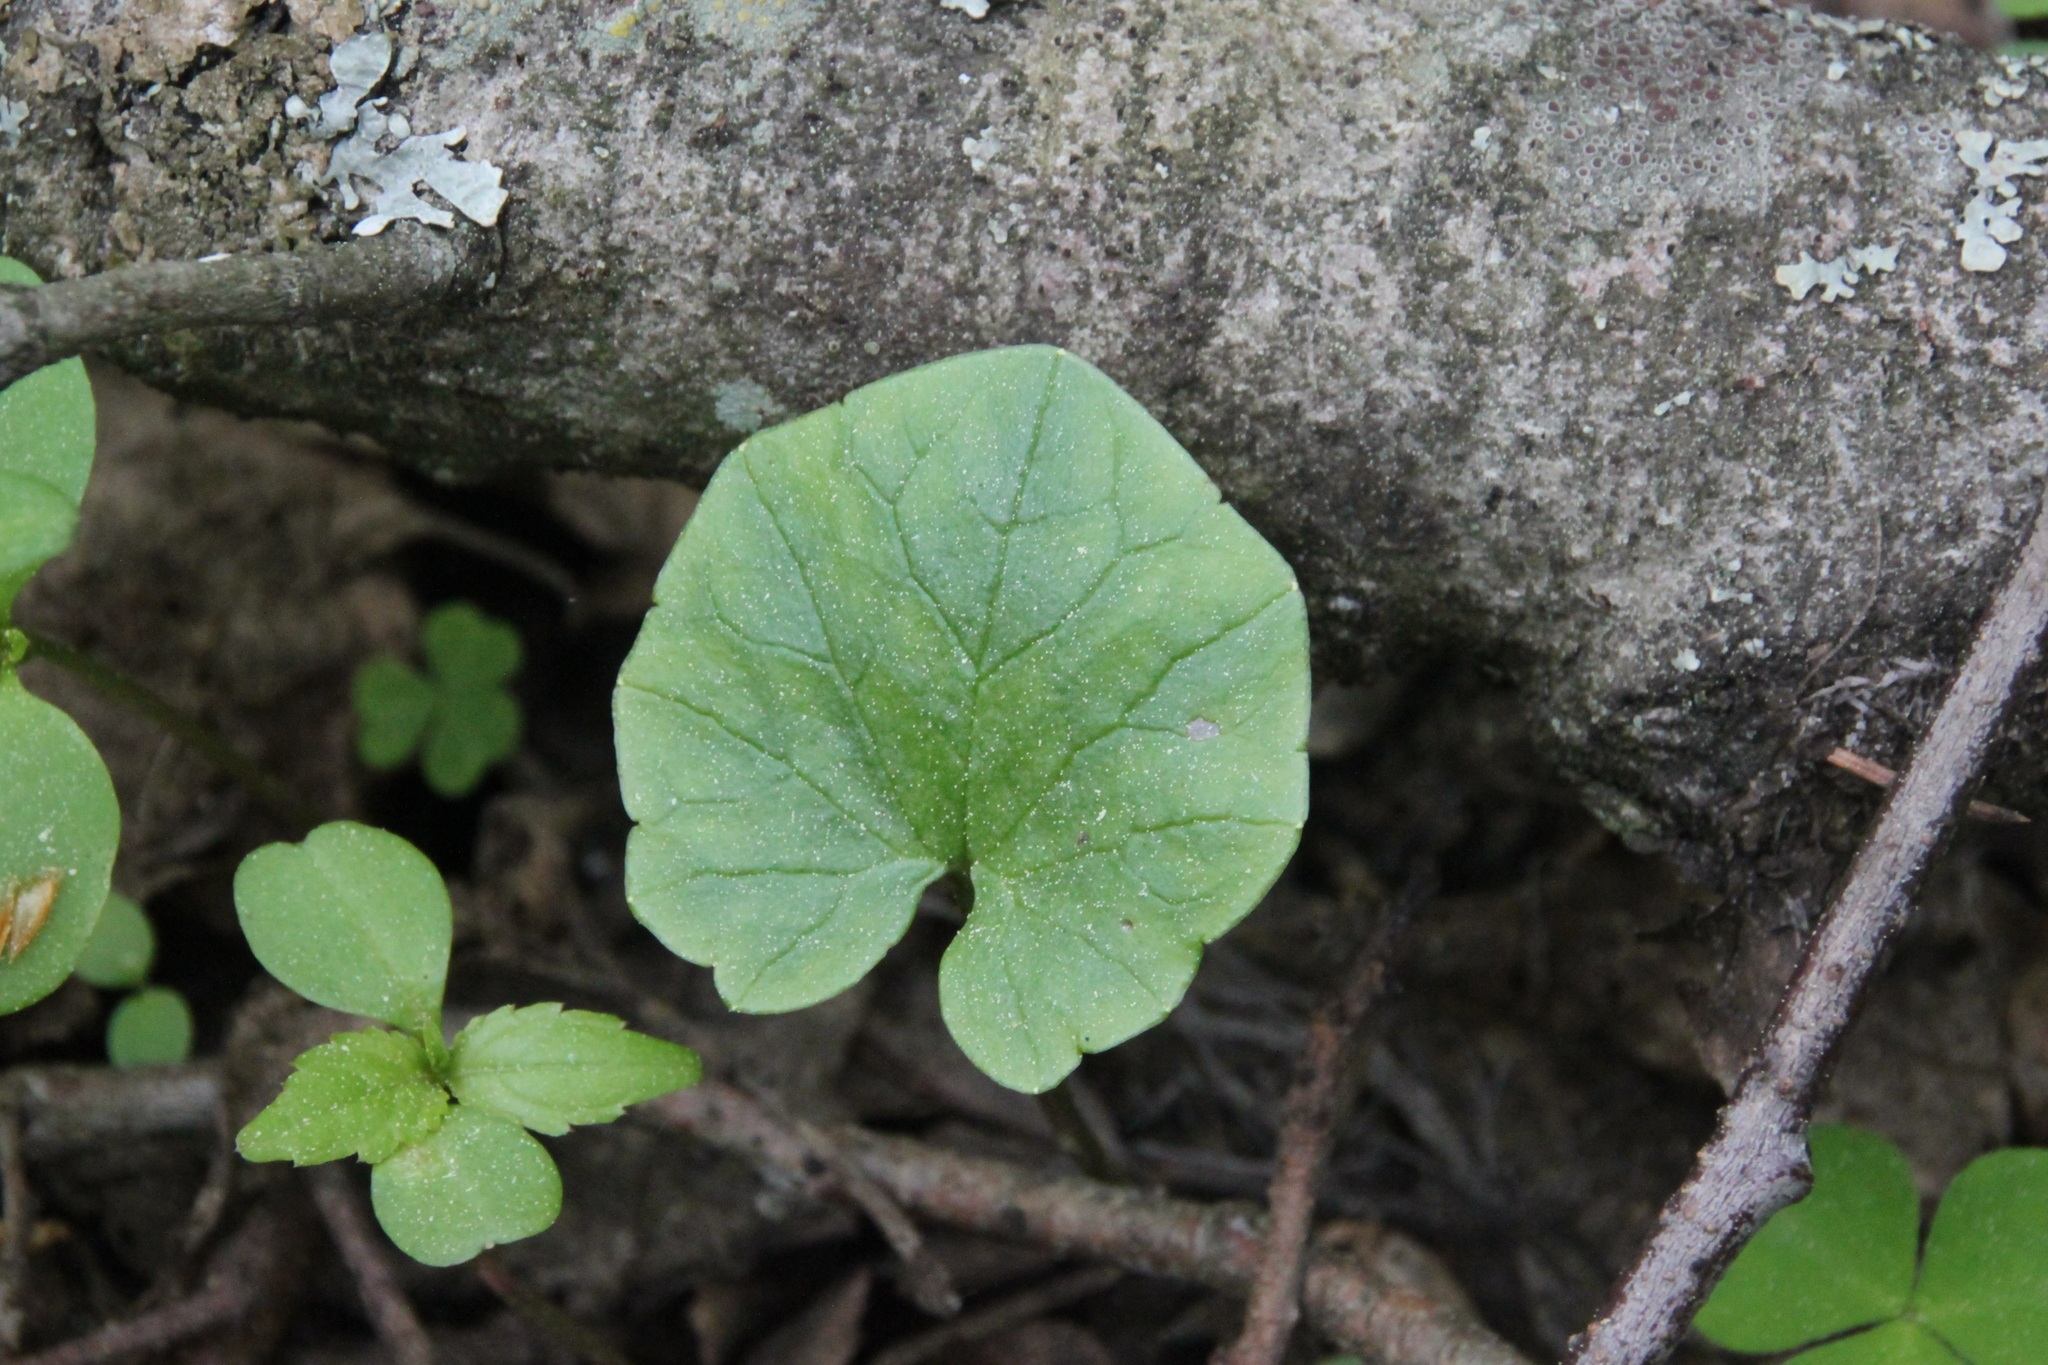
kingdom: Plantae
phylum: Tracheophyta
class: Magnoliopsida
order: Ranunculales
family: Ranunculaceae
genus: Ficaria
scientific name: Ficaria verna
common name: Lesser celandine
